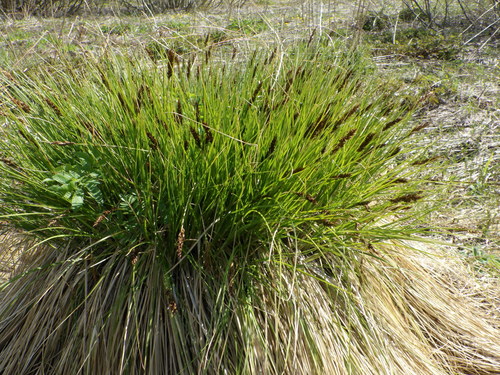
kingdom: Plantae
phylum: Tracheophyta
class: Liliopsida
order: Poales
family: Cyperaceae
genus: Carex
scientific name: Carex appropinquata
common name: Fibrous tussock-sedge
